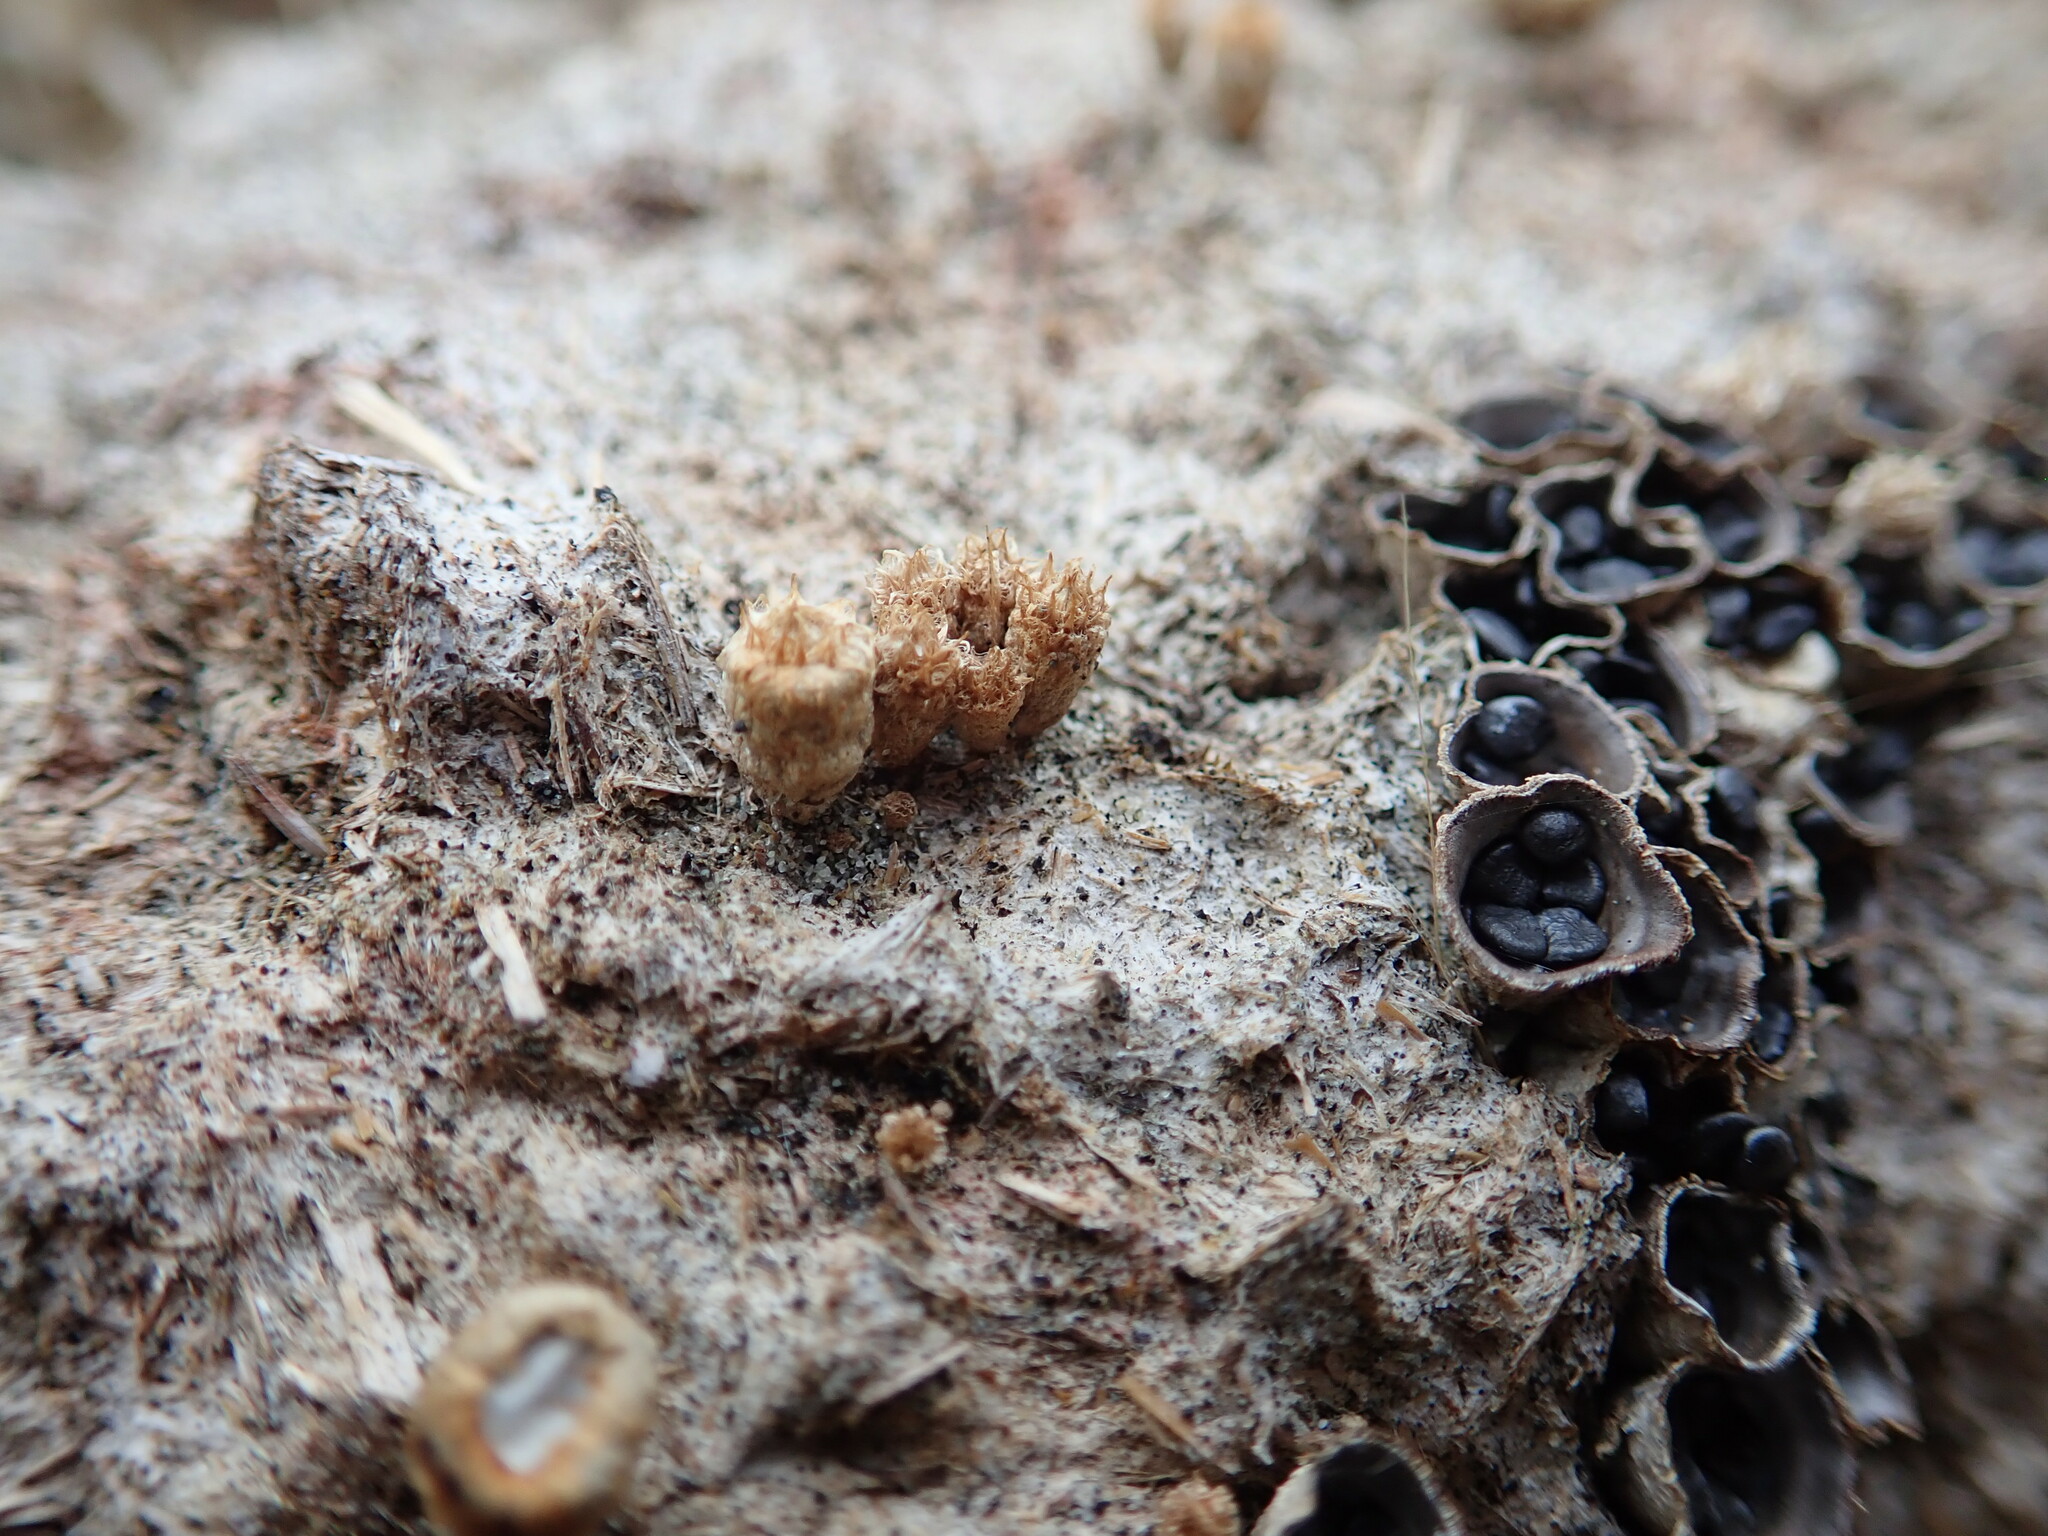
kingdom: Fungi
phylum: Basidiomycota
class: Agaricomycetes
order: Agaricales
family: Agaricaceae
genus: Cyathus
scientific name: Cyathus stercoreus
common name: Dung bird's nest
